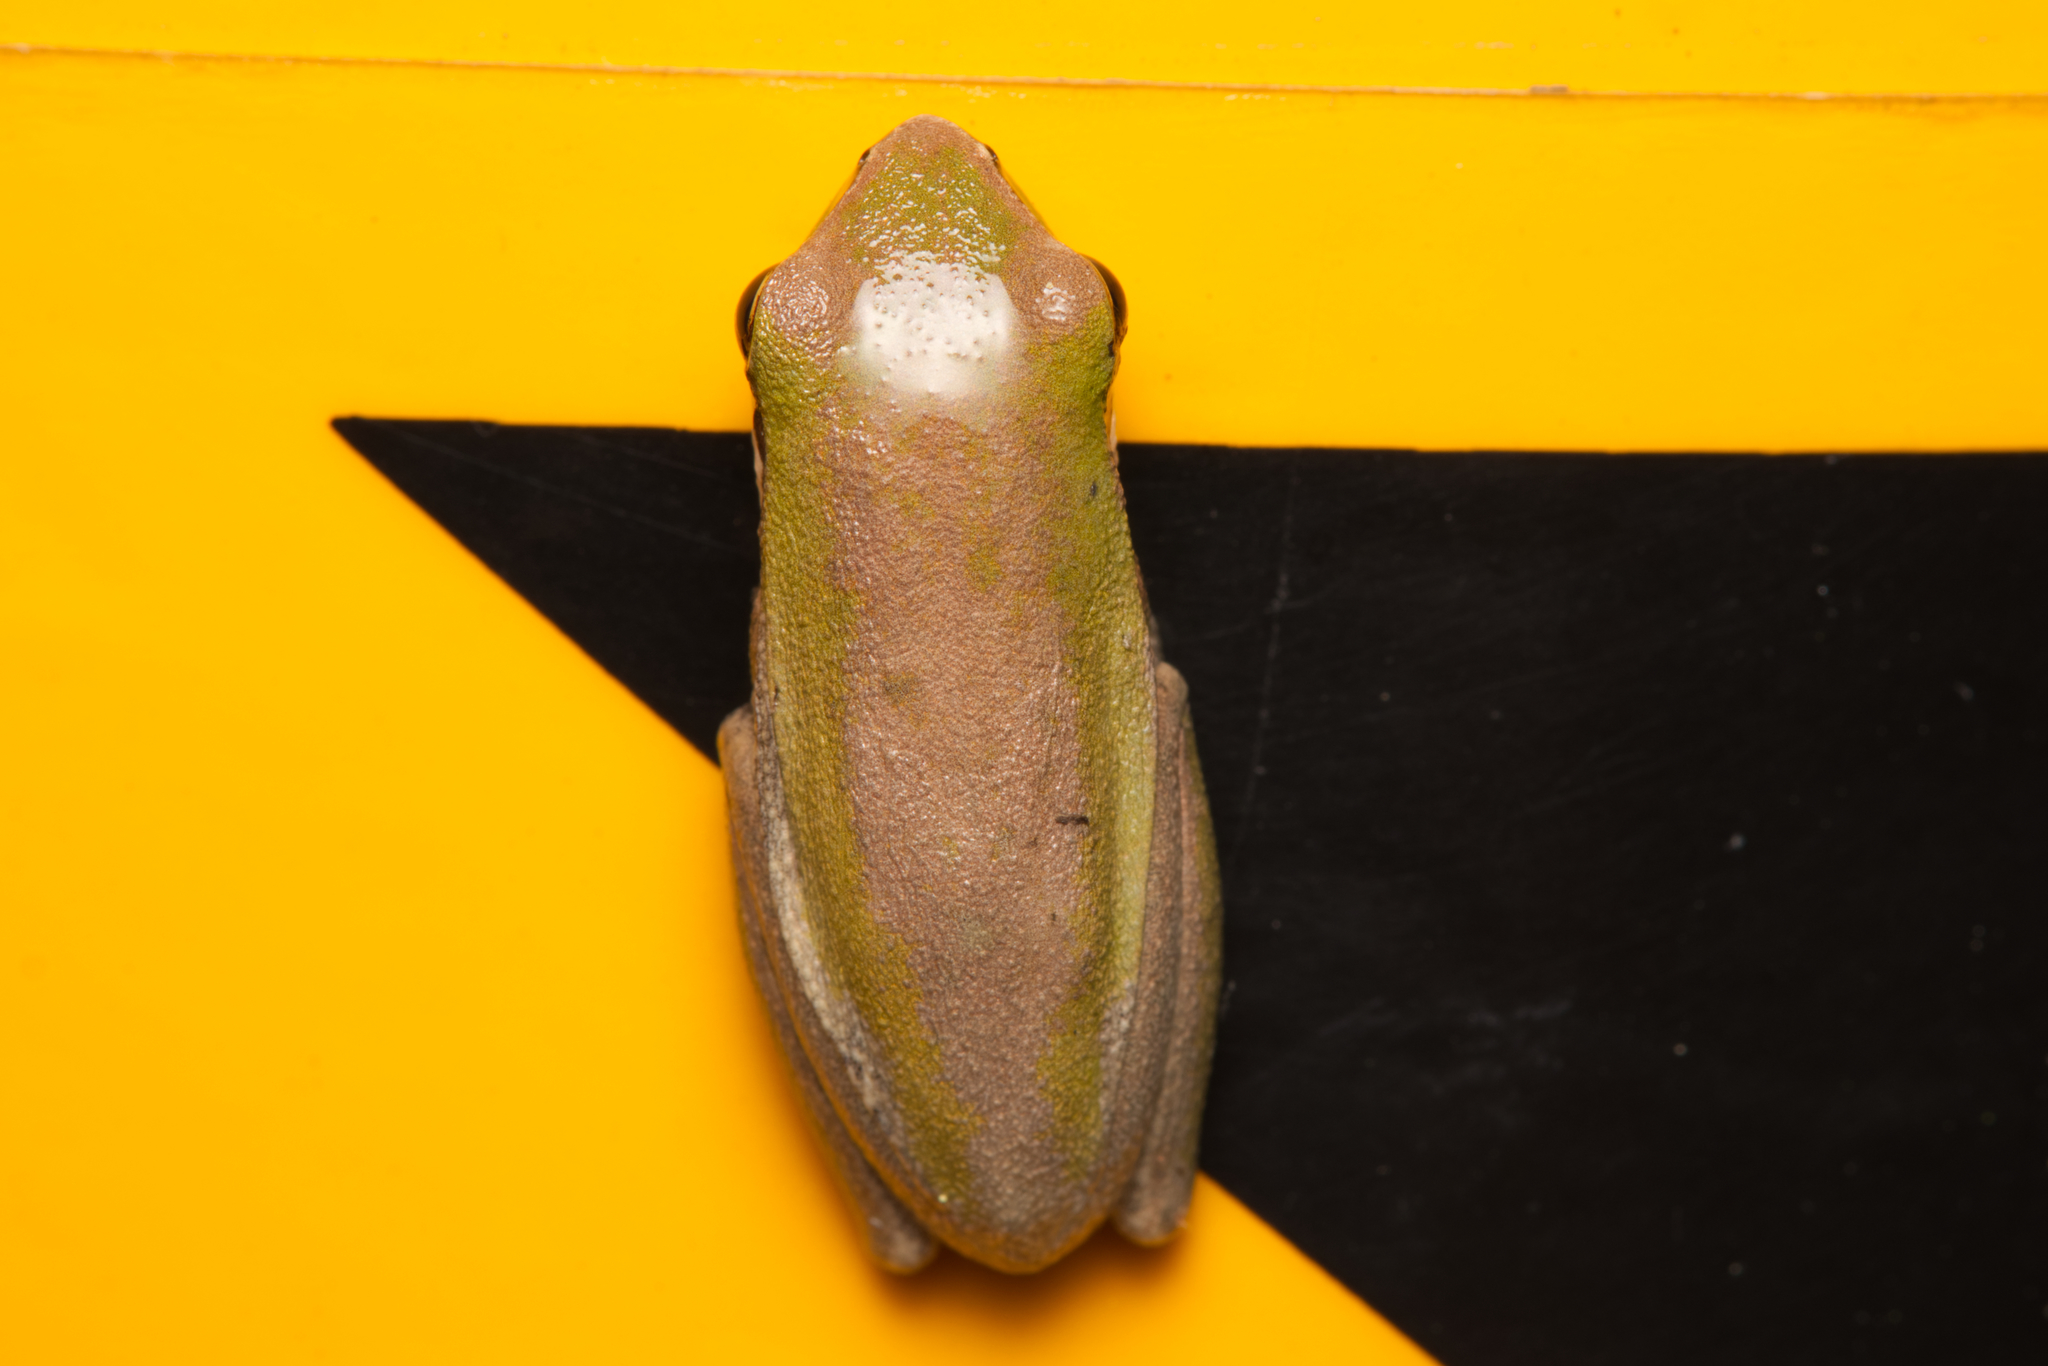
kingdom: Animalia
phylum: Chordata
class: Amphibia
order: Anura
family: Pelodryadidae
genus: Litoria
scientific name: Litoria fallax
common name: Eastern dwarf treefrog
